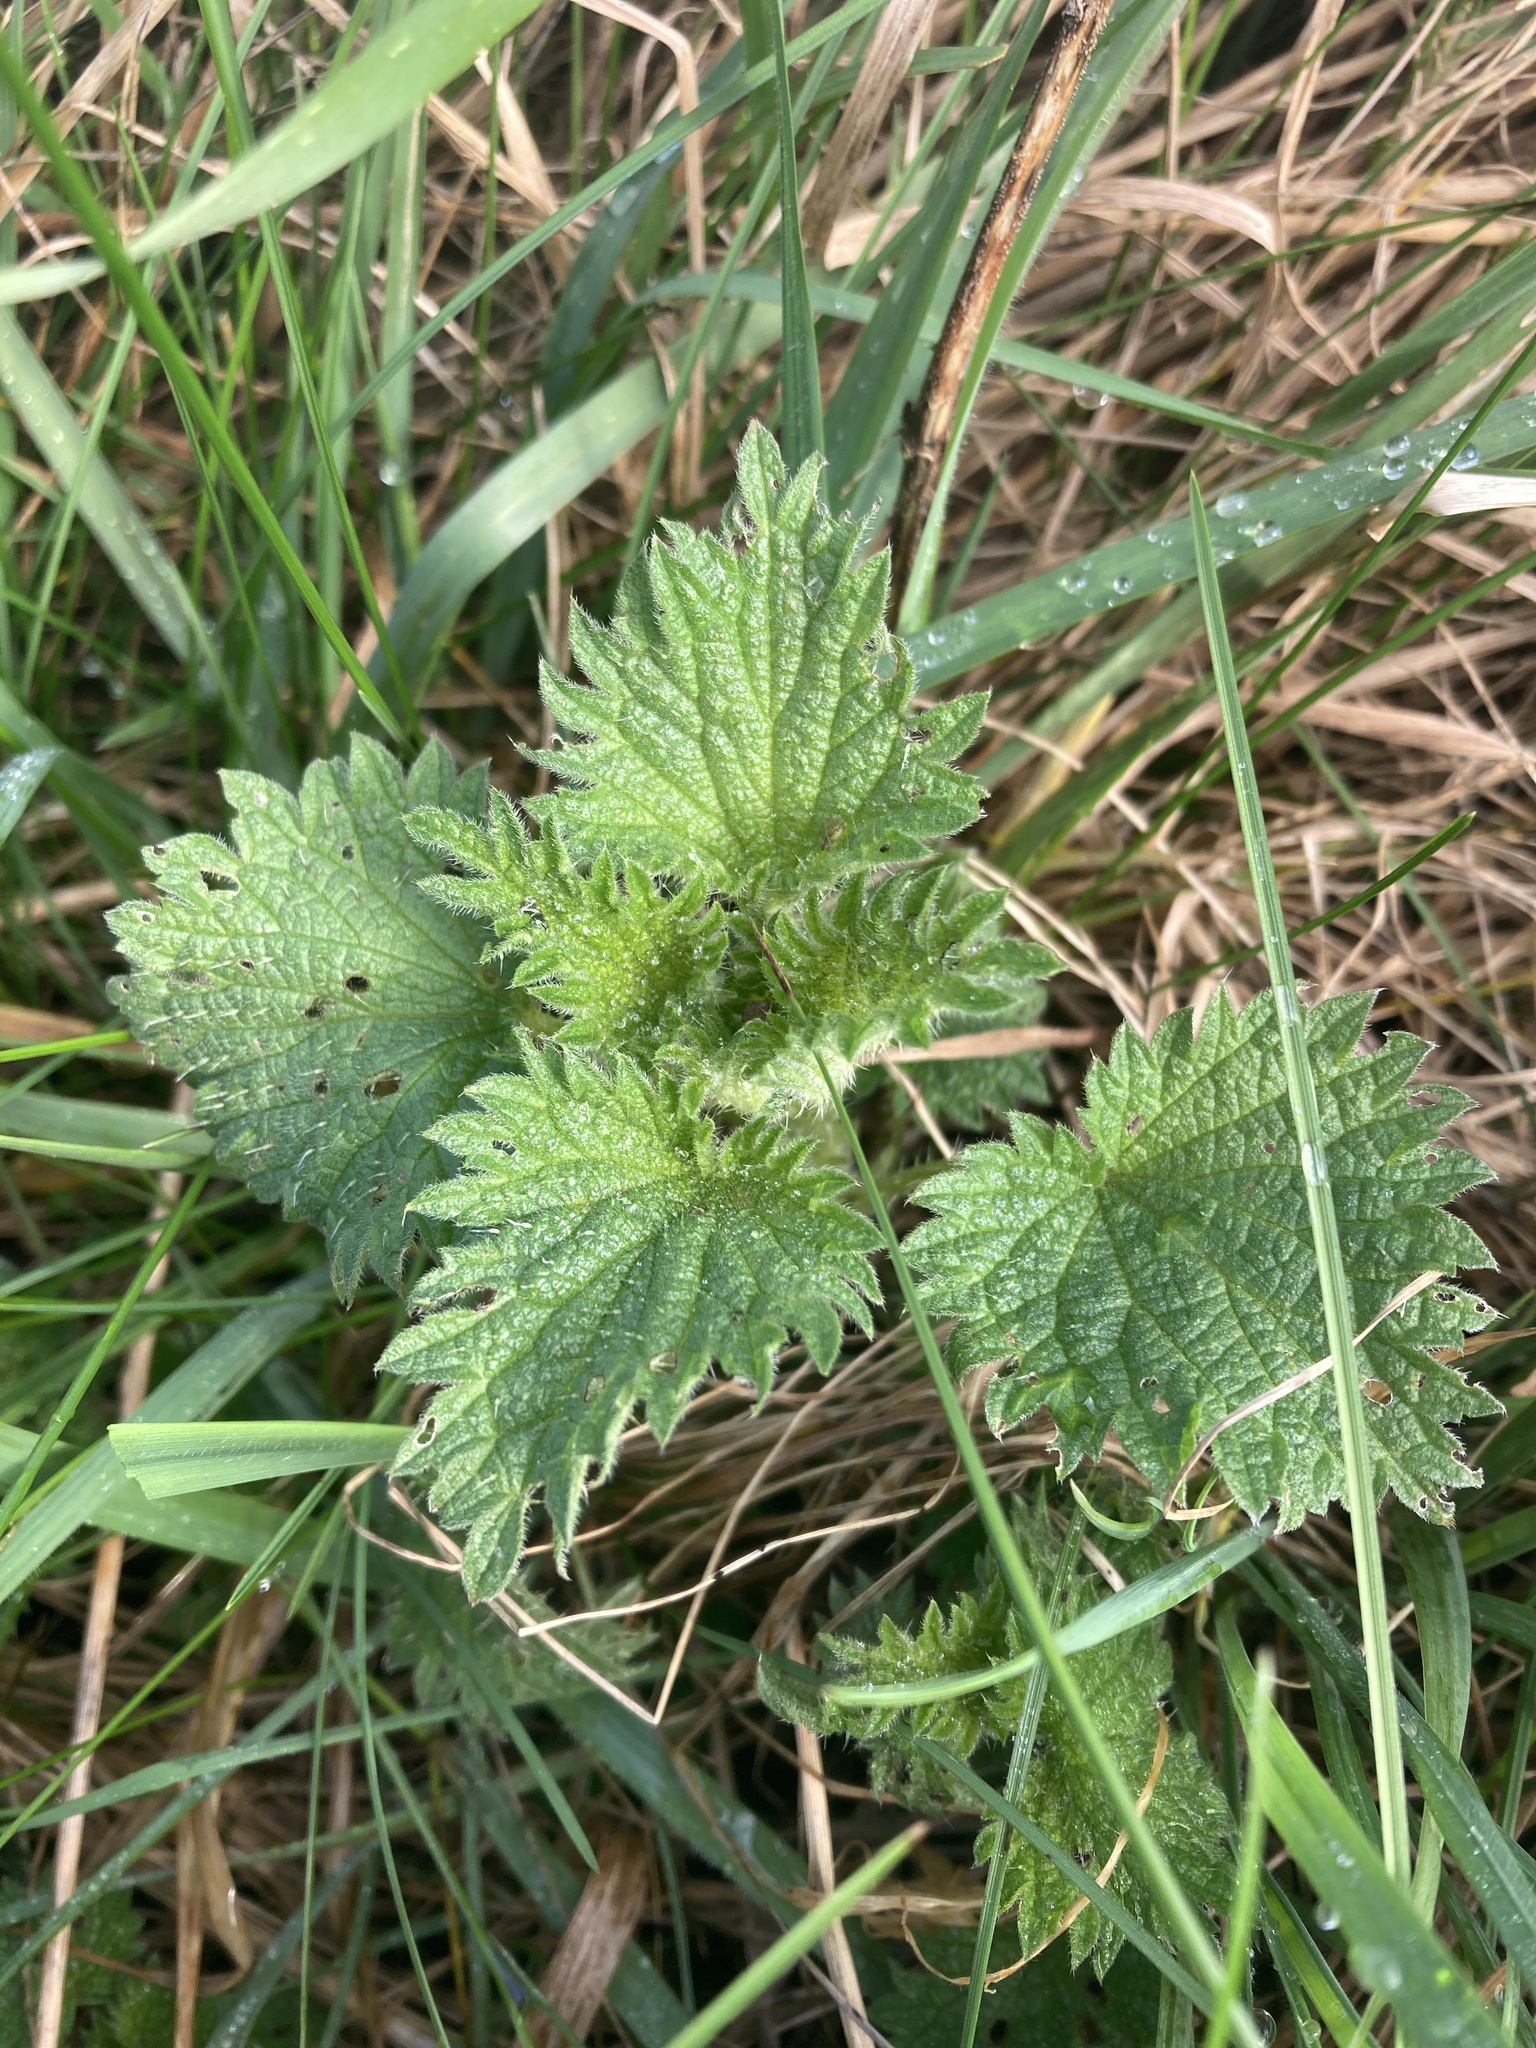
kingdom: Plantae
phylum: Tracheophyta
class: Magnoliopsida
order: Rosales
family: Urticaceae
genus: Urtica
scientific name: Urtica dioica
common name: Common nettle
